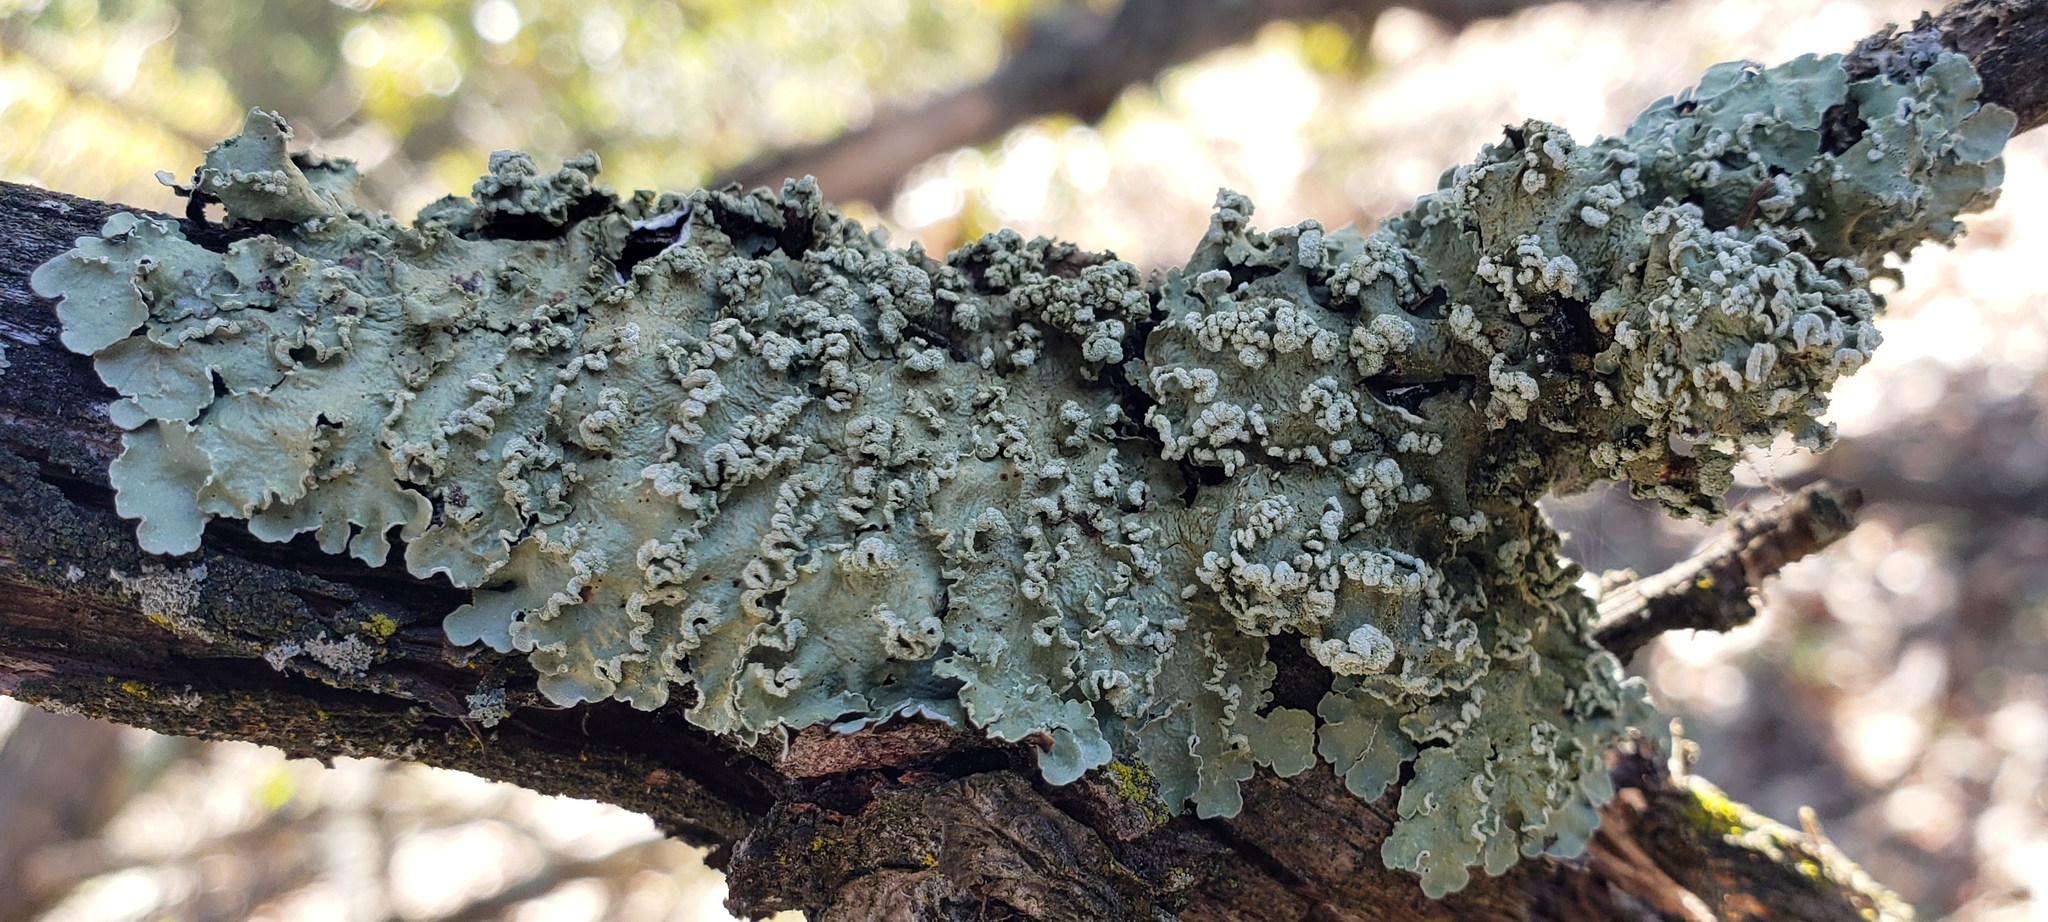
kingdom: Fungi
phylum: Ascomycota
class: Lecanoromycetes
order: Lecanorales
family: Parmeliaceae
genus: Flavopunctelia
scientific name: Flavopunctelia soredica
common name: Powder-edged speckled greenshield
